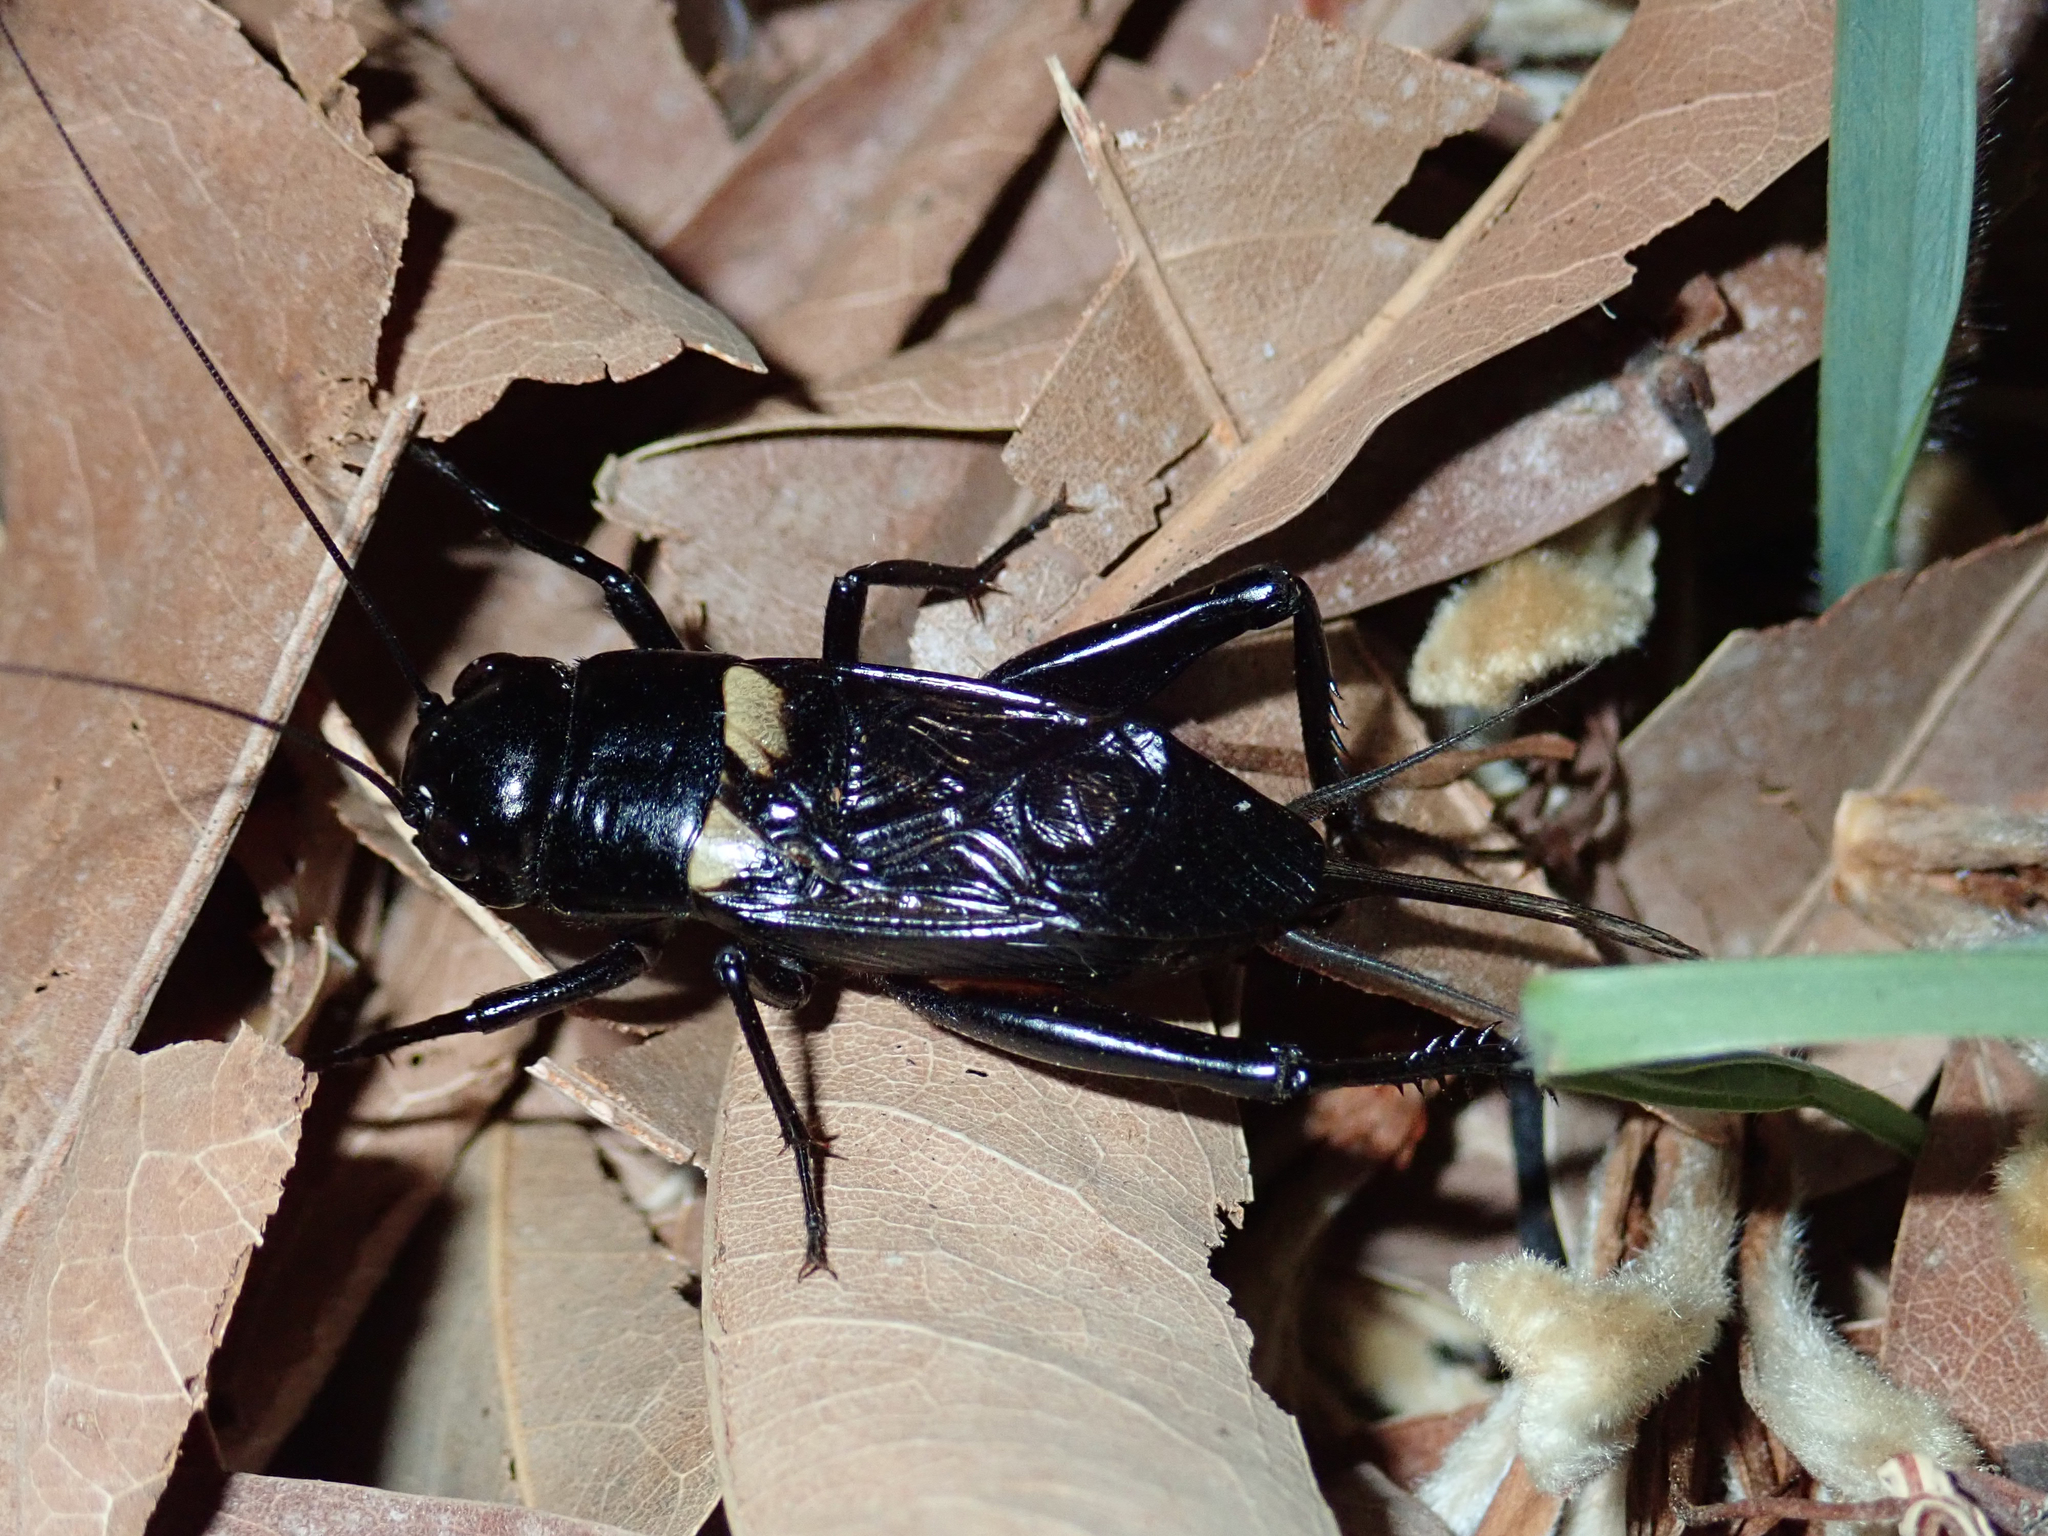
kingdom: Animalia
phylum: Arthropoda
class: Insecta
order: Orthoptera
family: Gryllidae
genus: Gryllus
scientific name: Gryllus bimaculatus
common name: Two-spotted cricket
